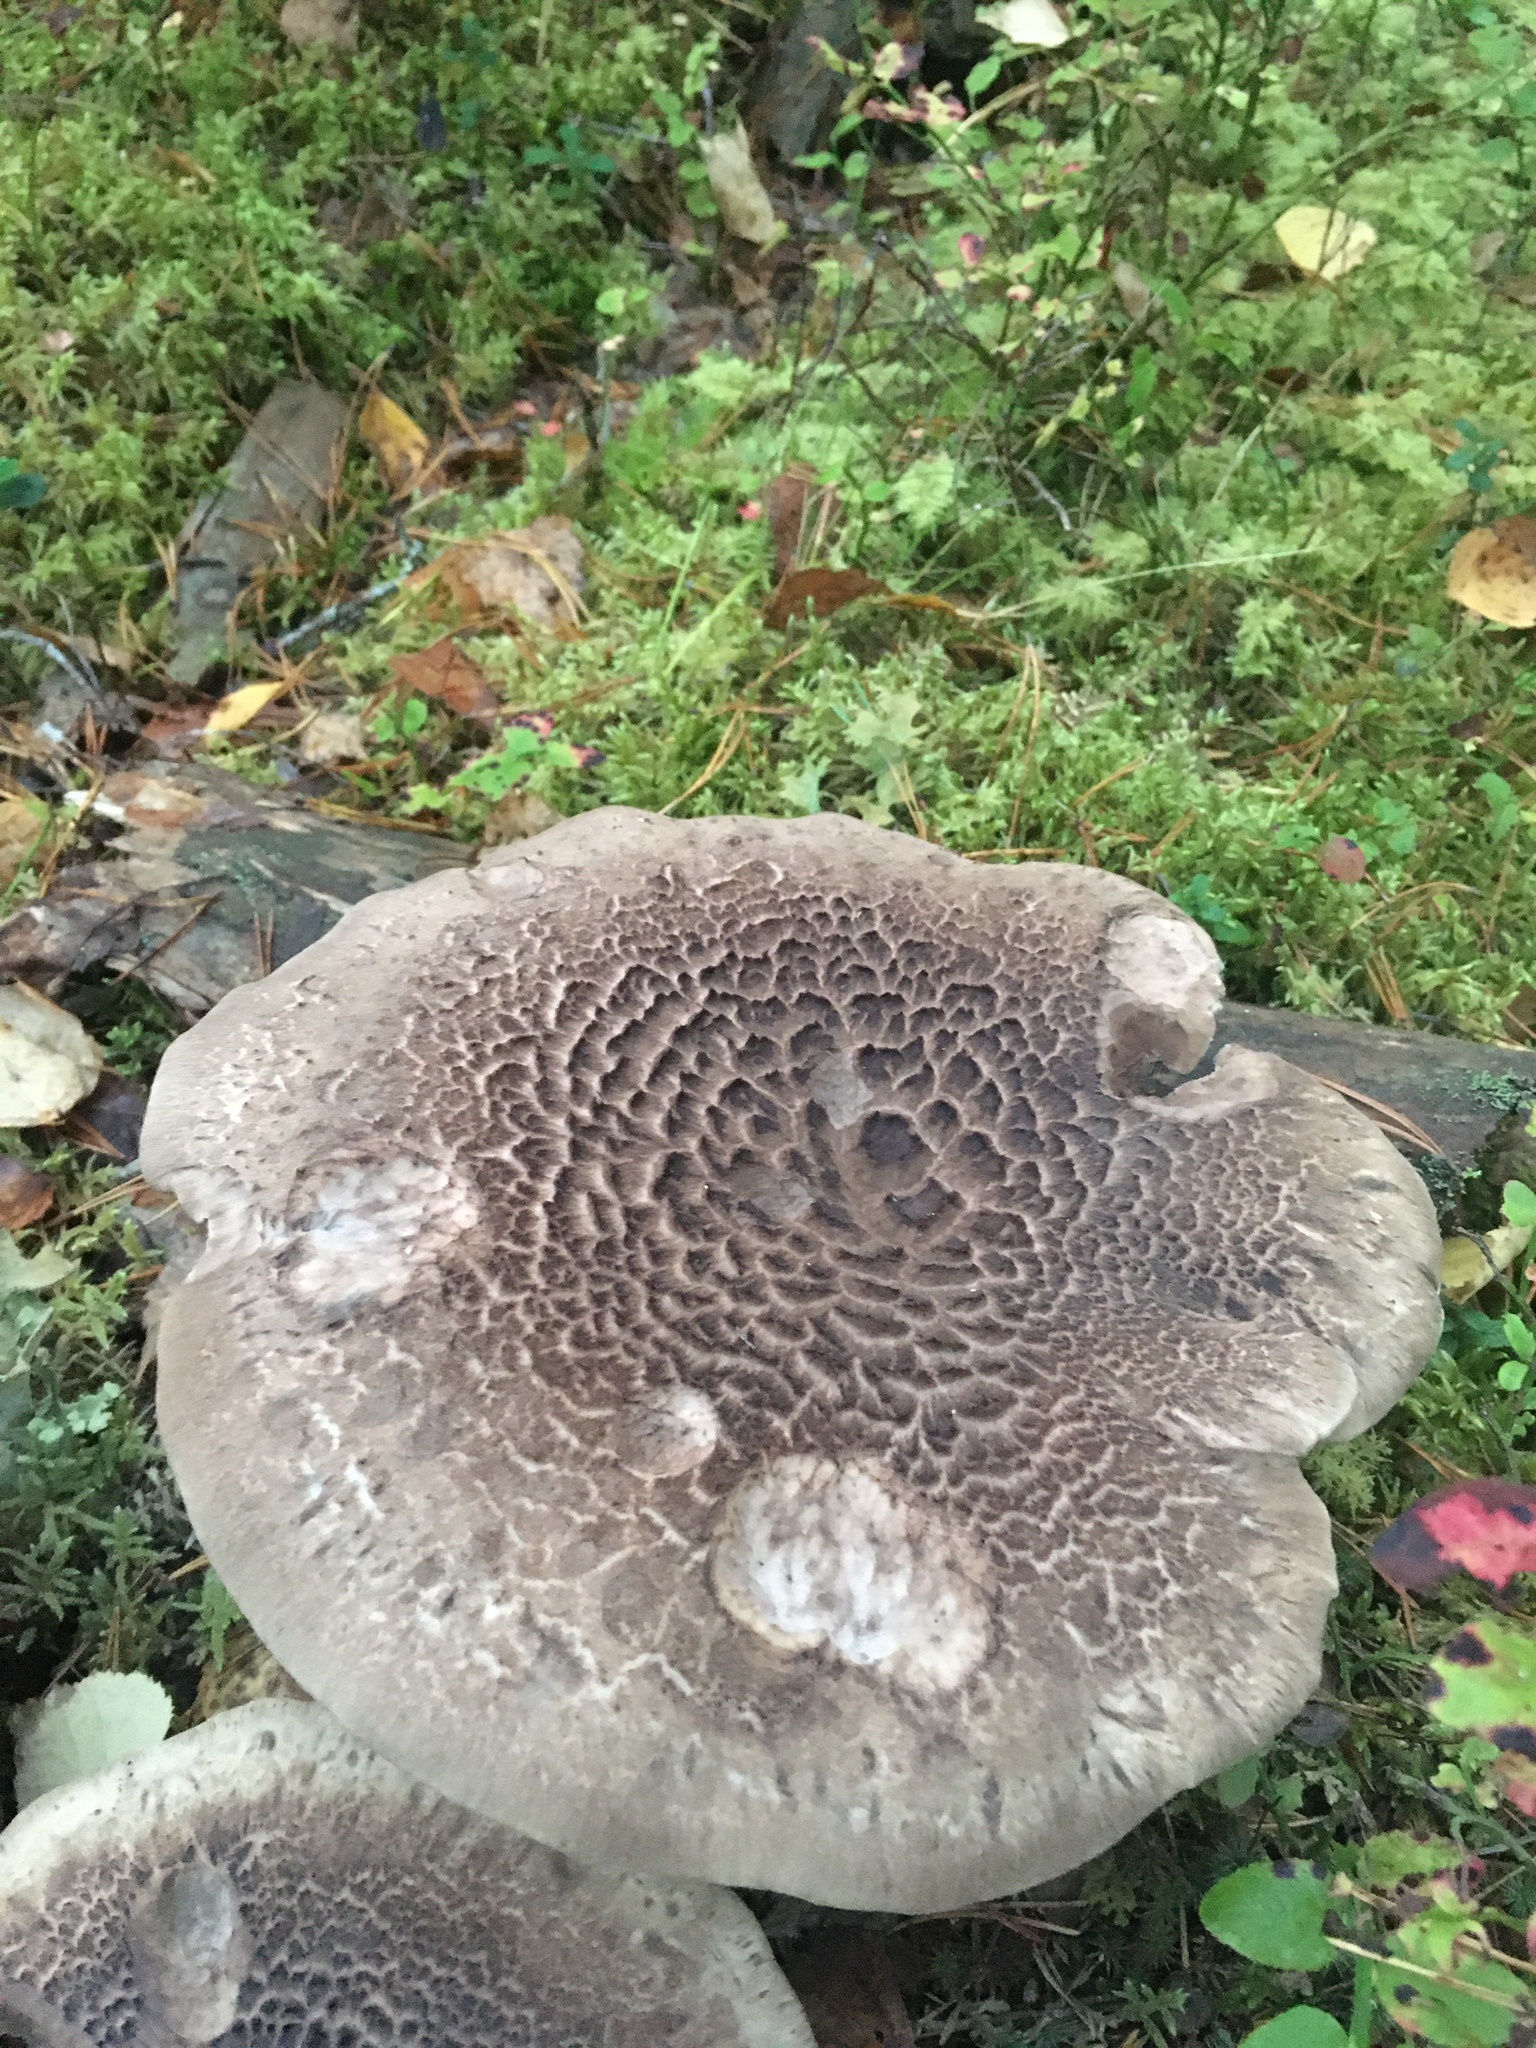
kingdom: Fungi
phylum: Basidiomycota
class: Agaricomycetes
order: Thelephorales
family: Bankeraceae
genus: Sarcodon
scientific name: Sarcodon imbricatus
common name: Shingled hedgehog
